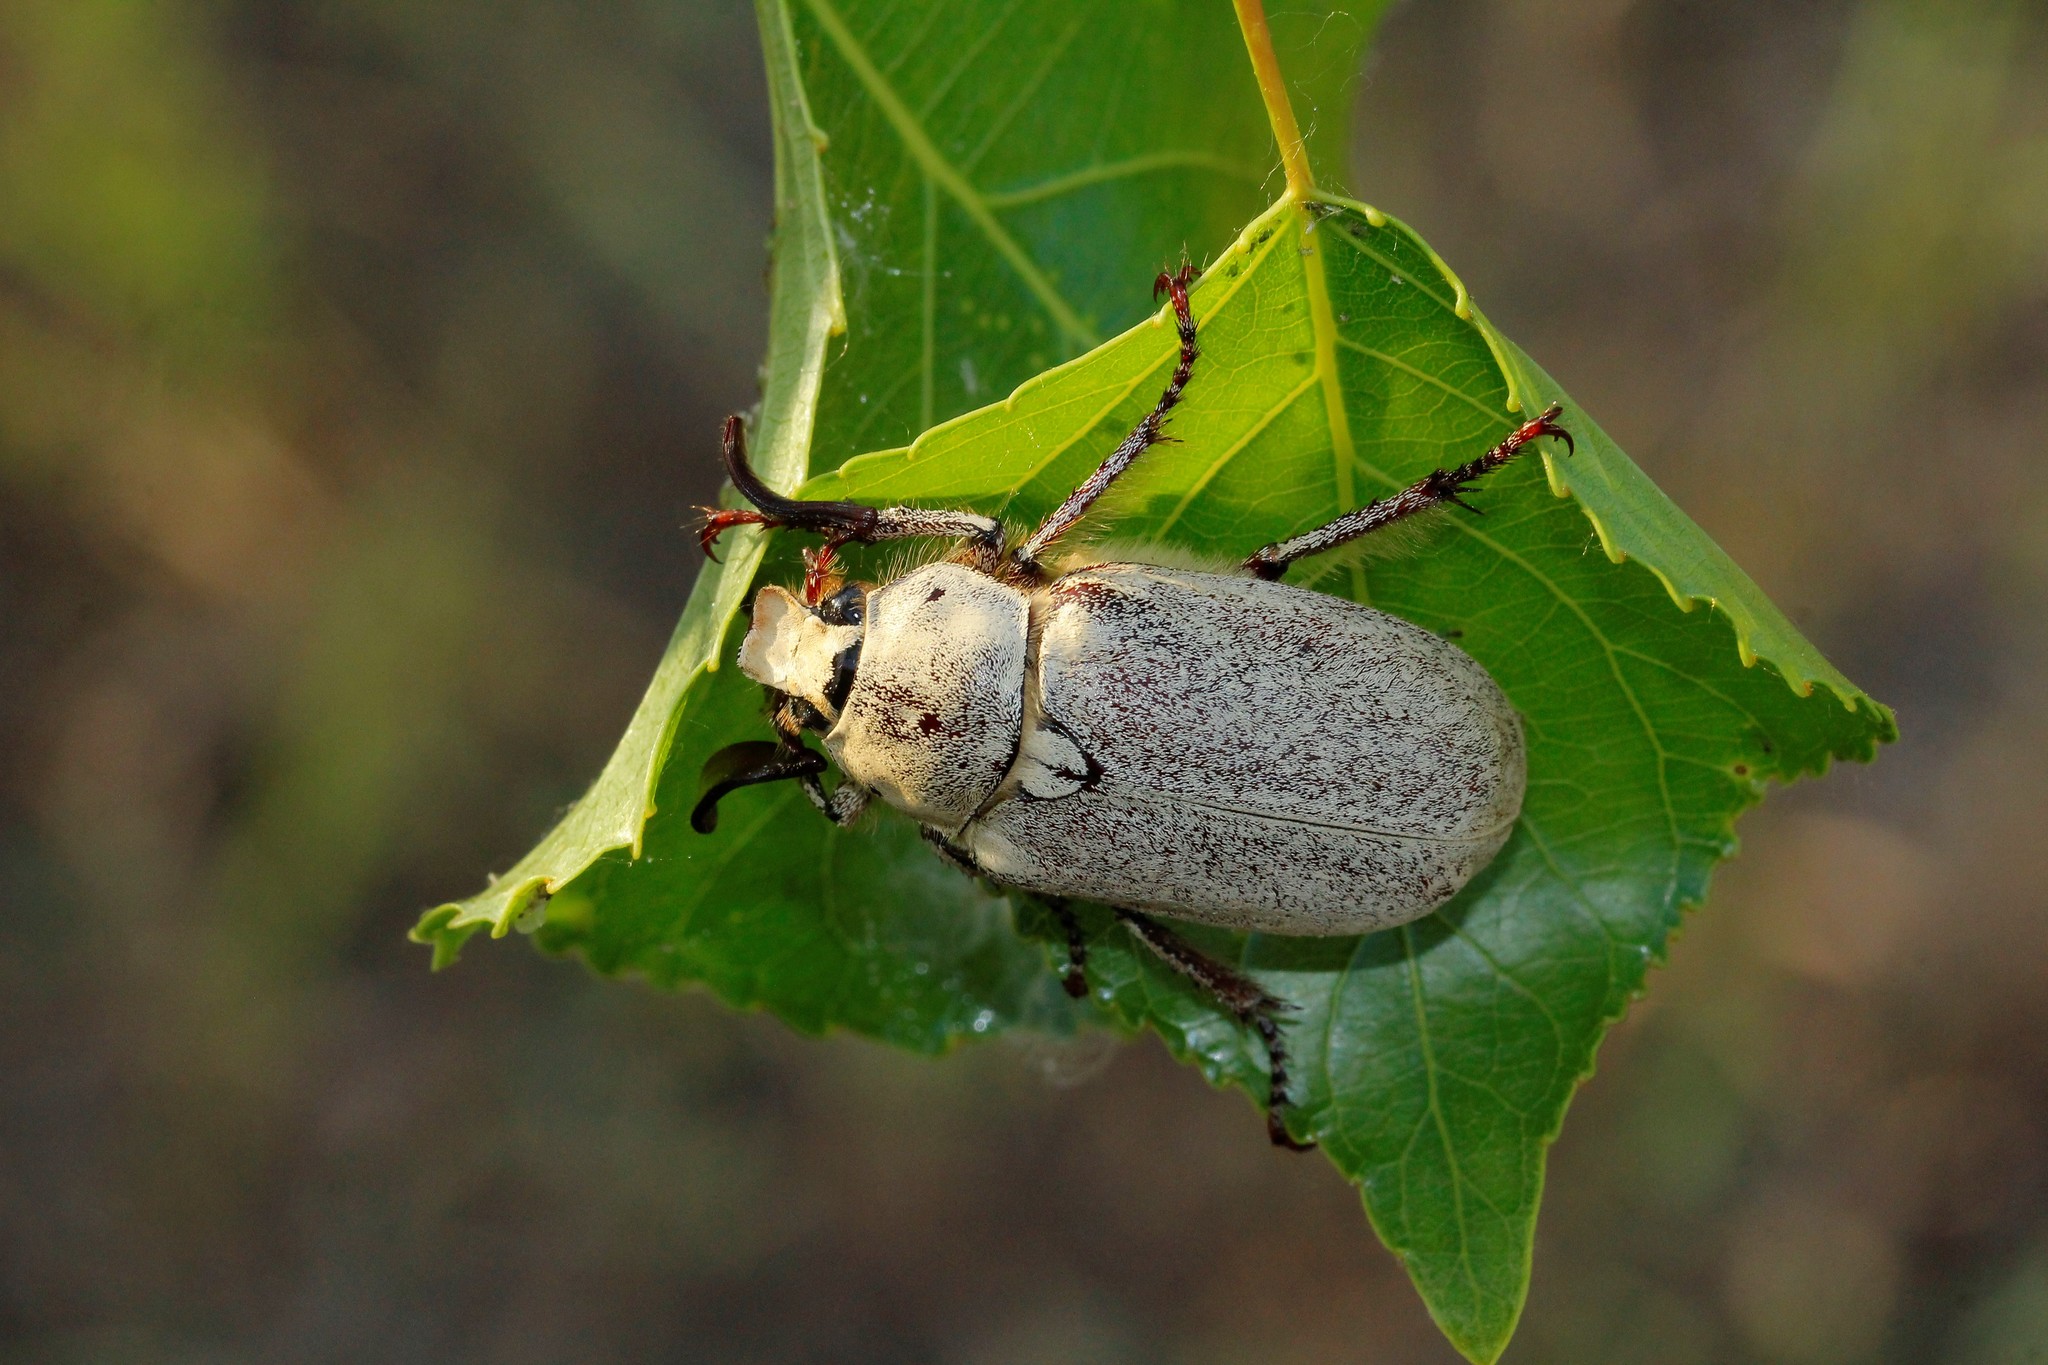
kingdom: Animalia
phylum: Arthropoda
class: Insecta
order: Coleoptera
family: Scarabaeidae
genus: Polyphylla
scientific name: Polyphylla alba
